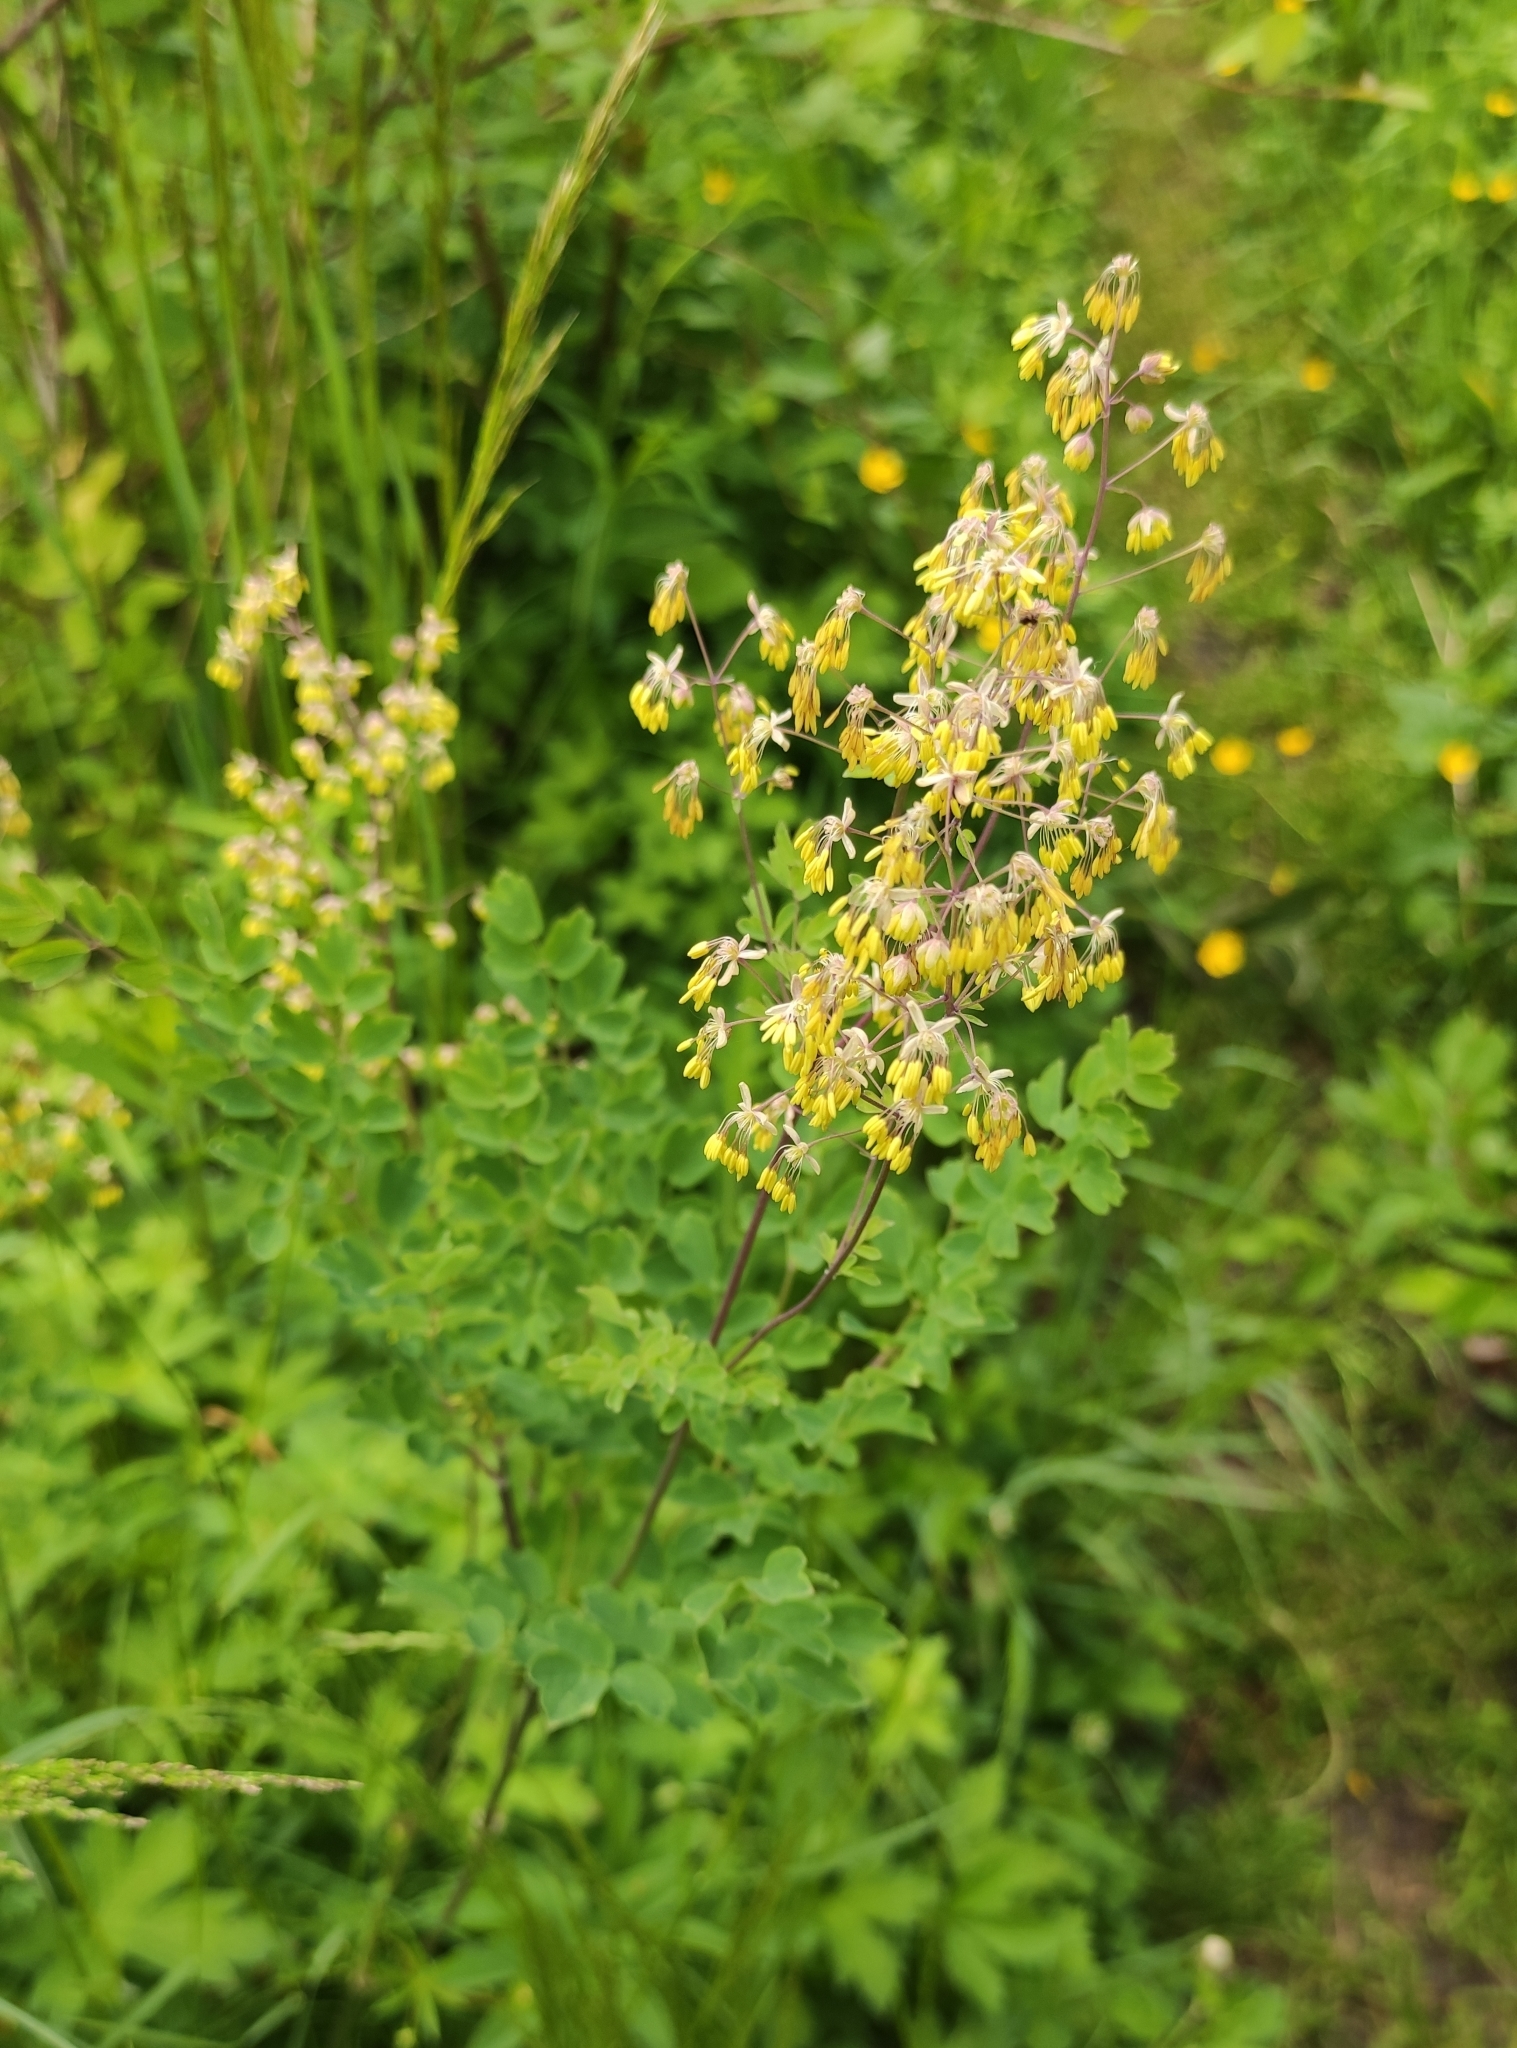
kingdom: Plantae
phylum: Tracheophyta
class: Magnoliopsida
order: Ranunculales
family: Ranunculaceae
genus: Thalictrum
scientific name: Thalictrum minus
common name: Lesser meadow-rue
